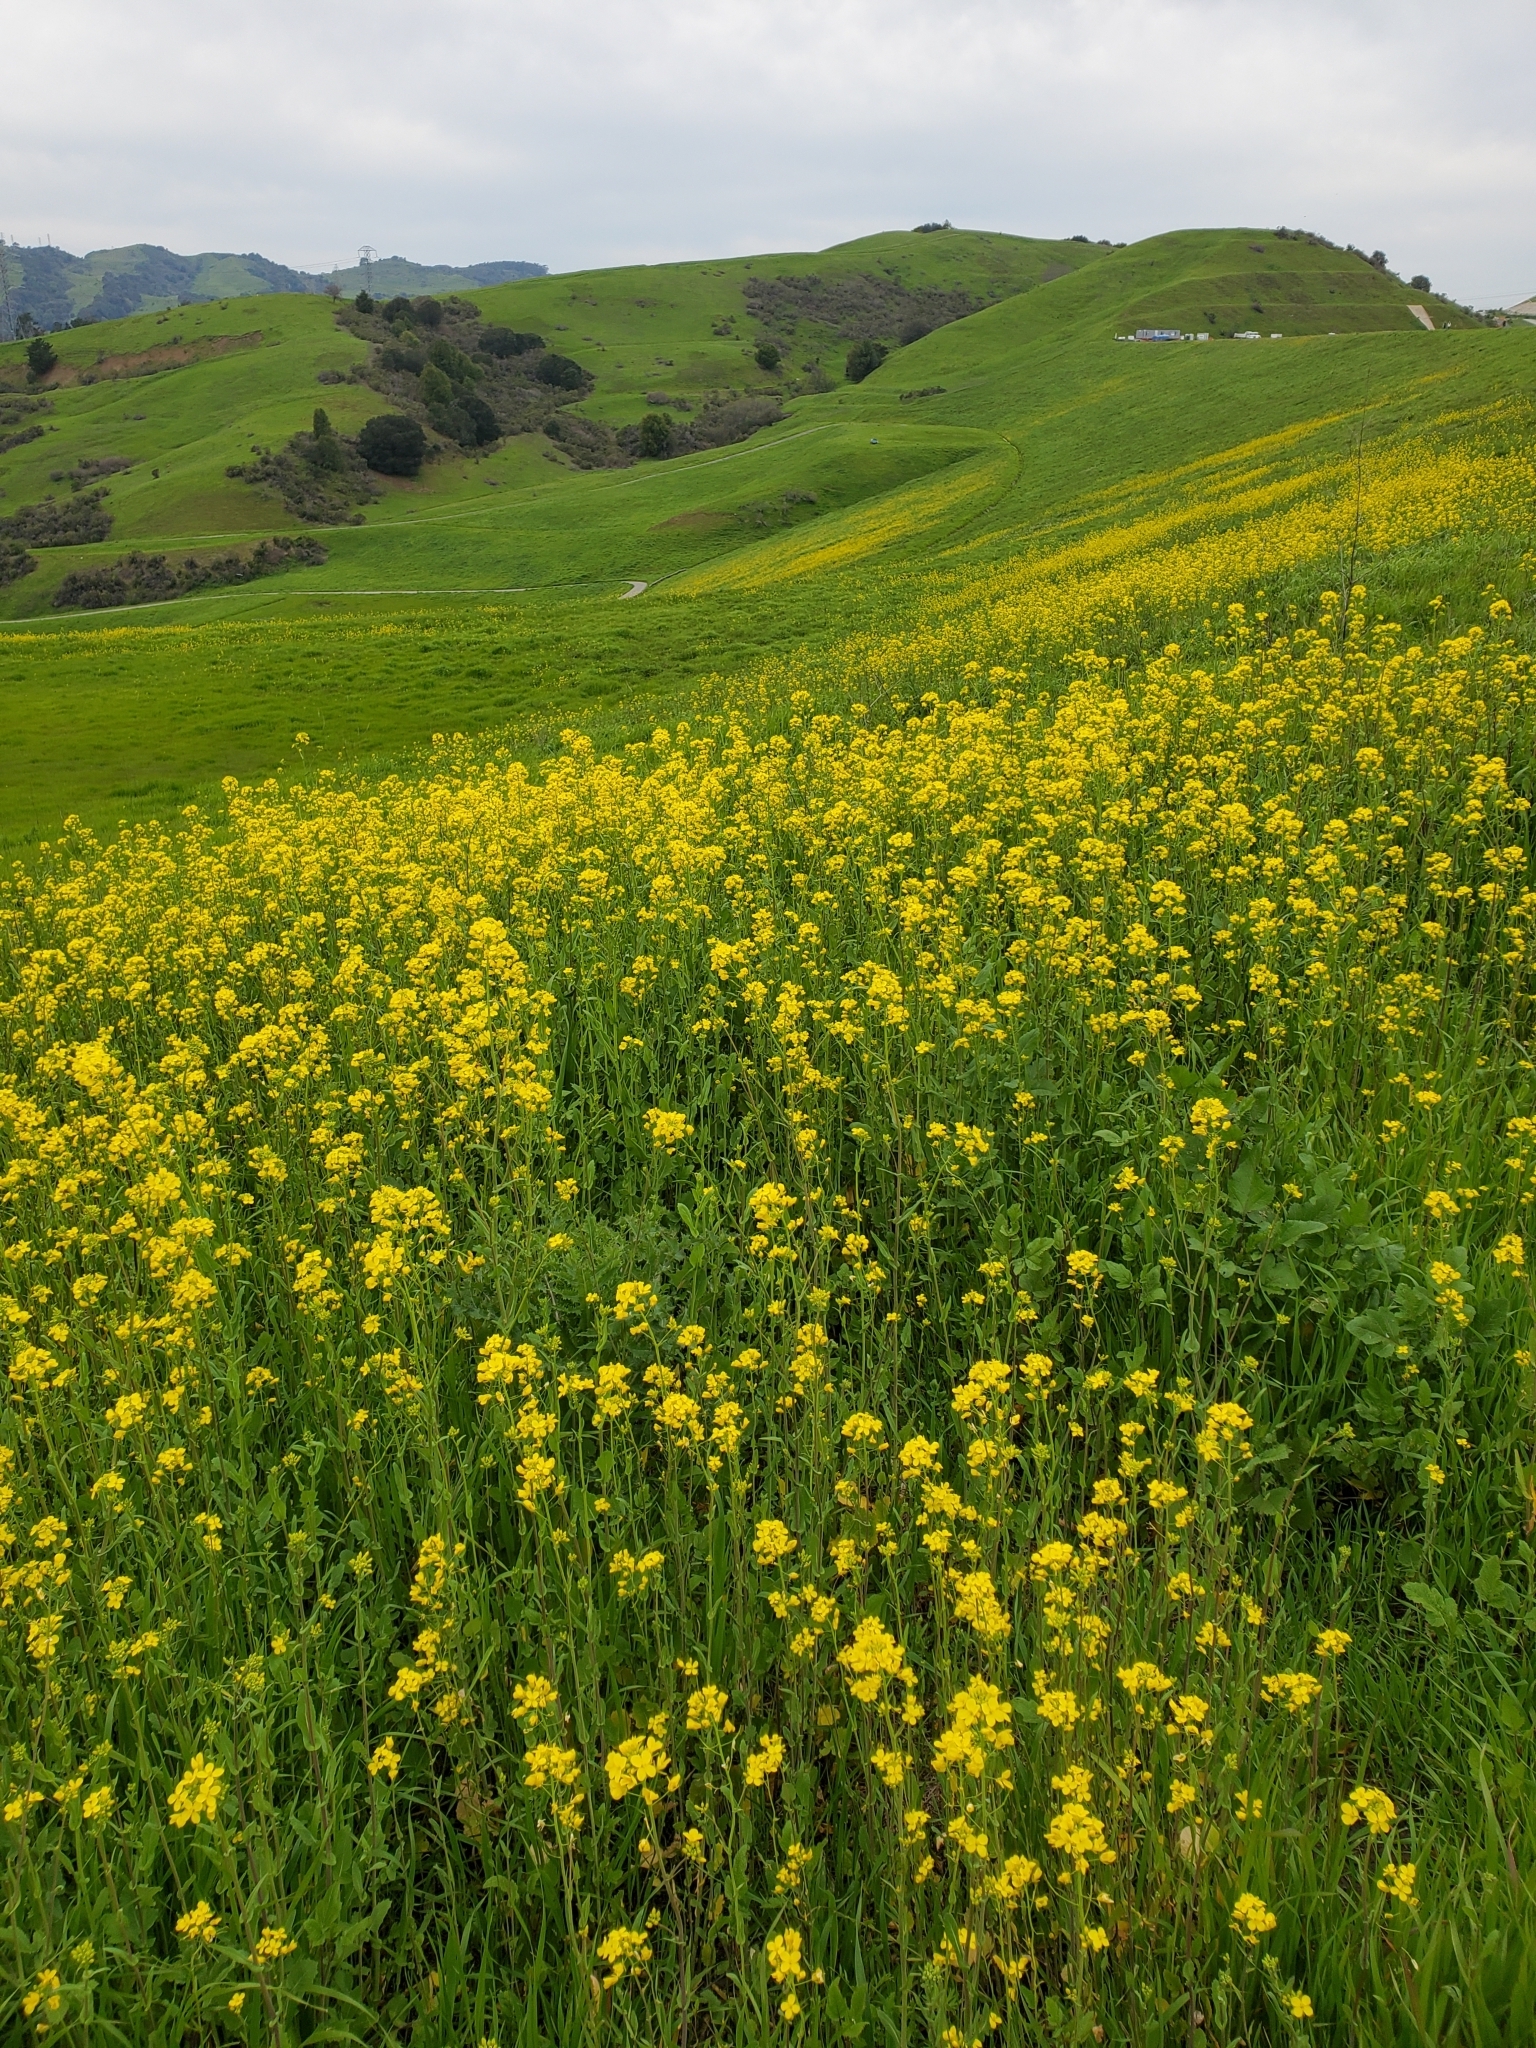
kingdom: Plantae
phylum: Tracheophyta
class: Magnoliopsida
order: Brassicales
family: Brassicaceae
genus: Brassica
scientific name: Brassica rapa
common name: Field mustard
